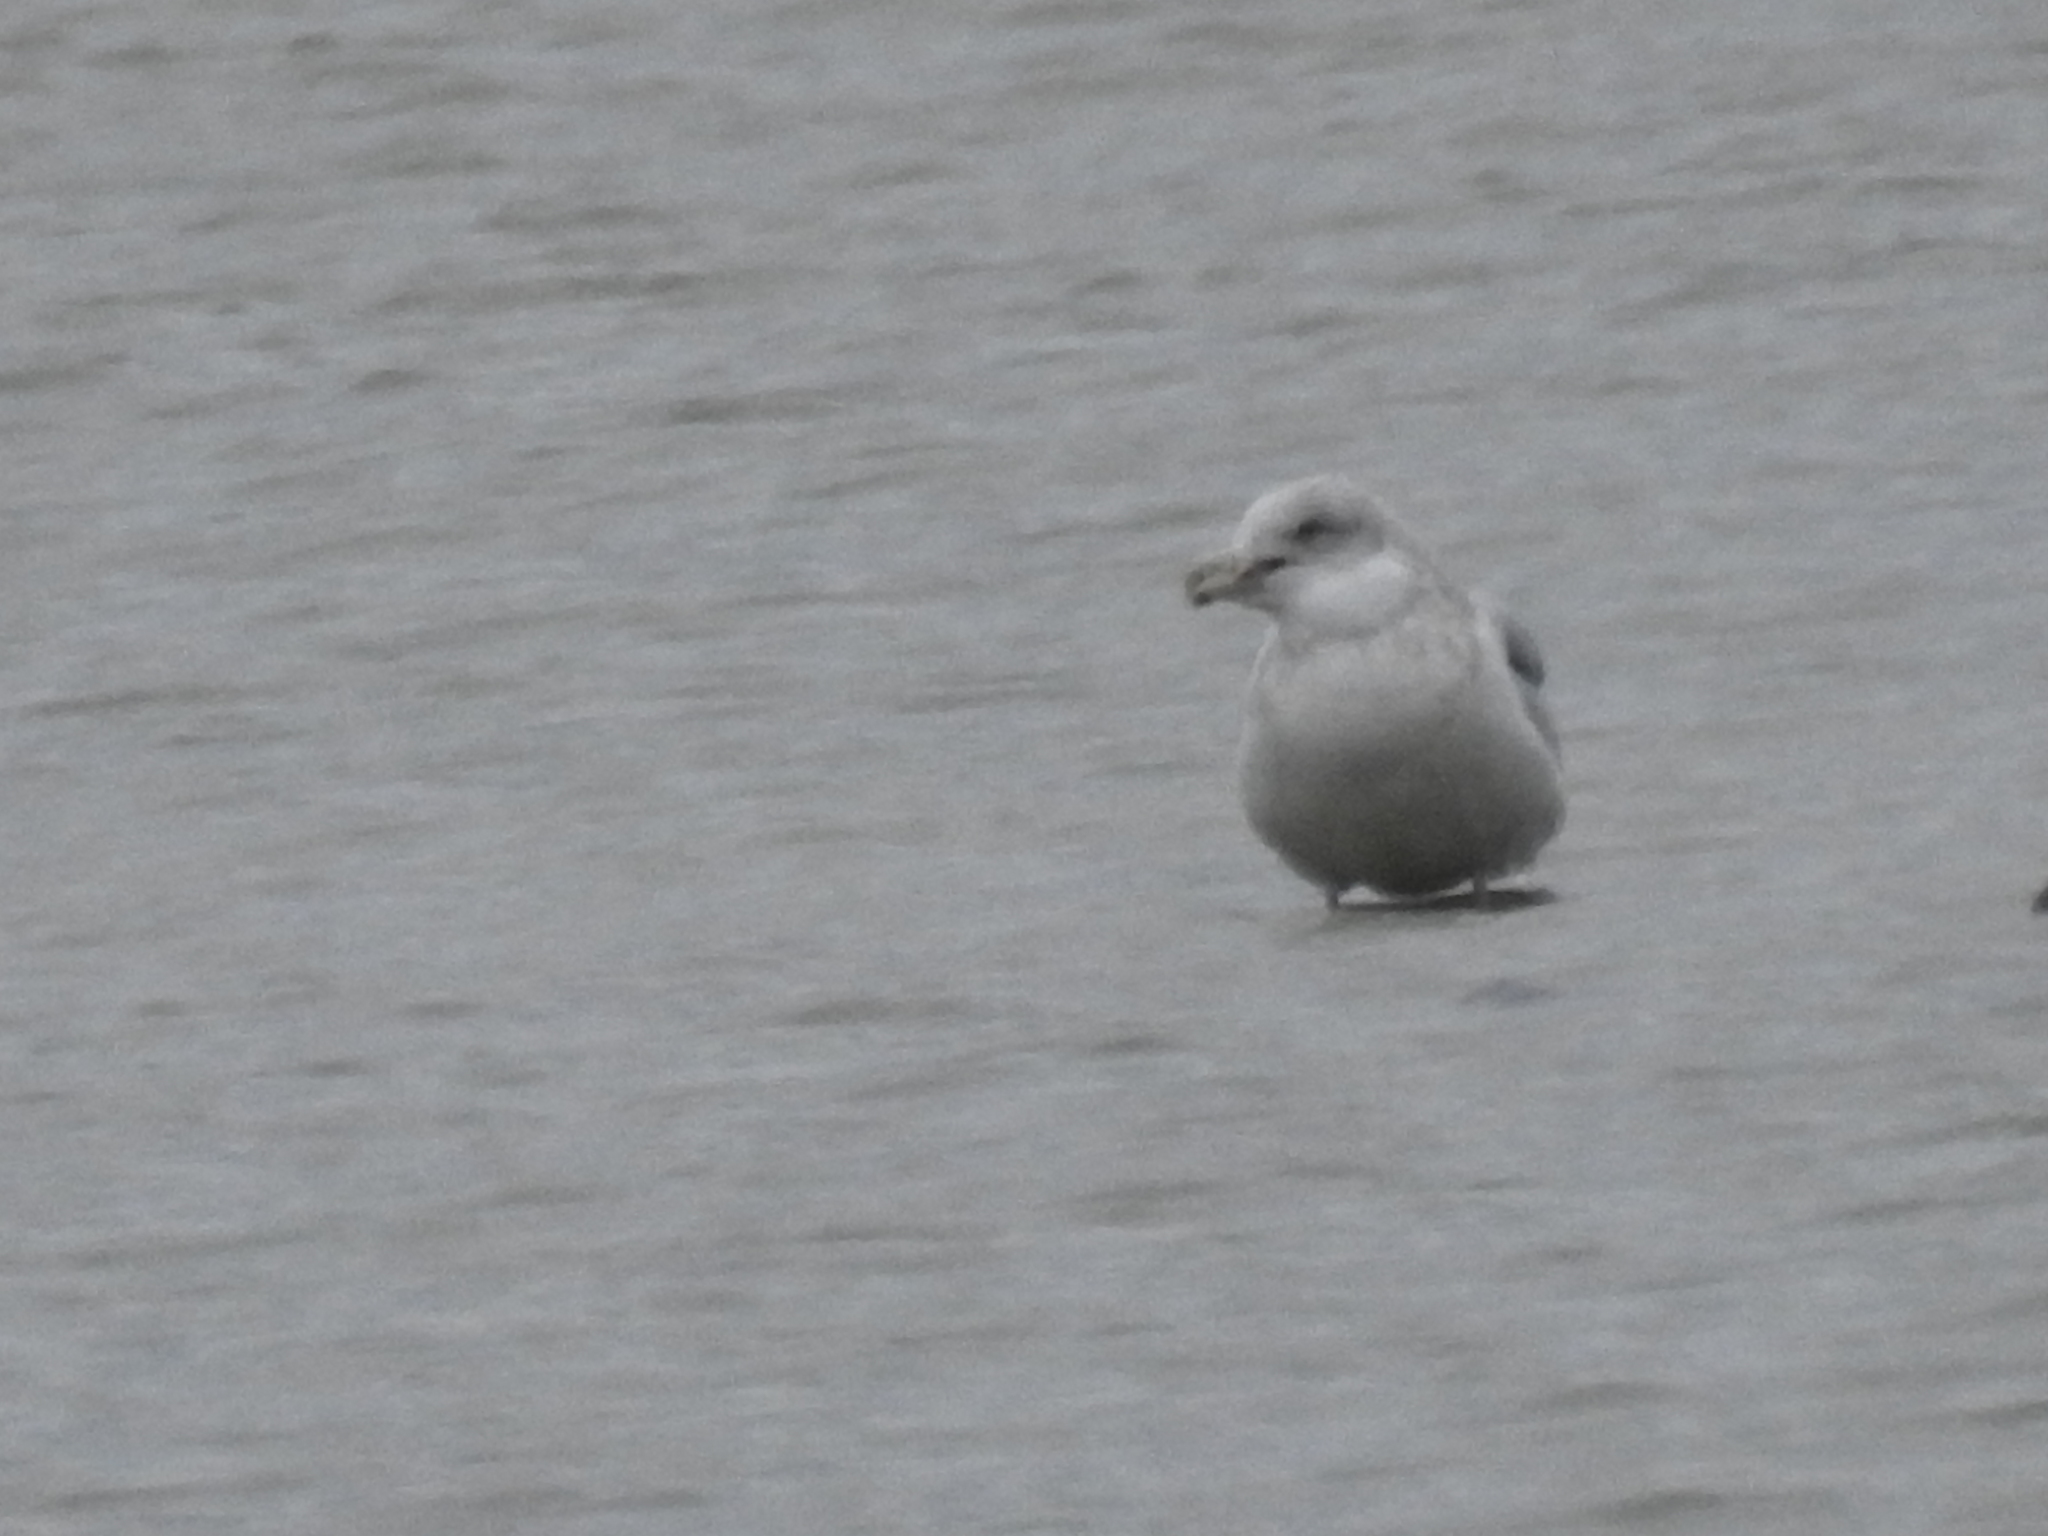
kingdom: Animalia
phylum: Chordata
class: Aves
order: Charadriiformes
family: Laridae
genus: Larus
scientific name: Larus delawarensis
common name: Ring-billed gull
